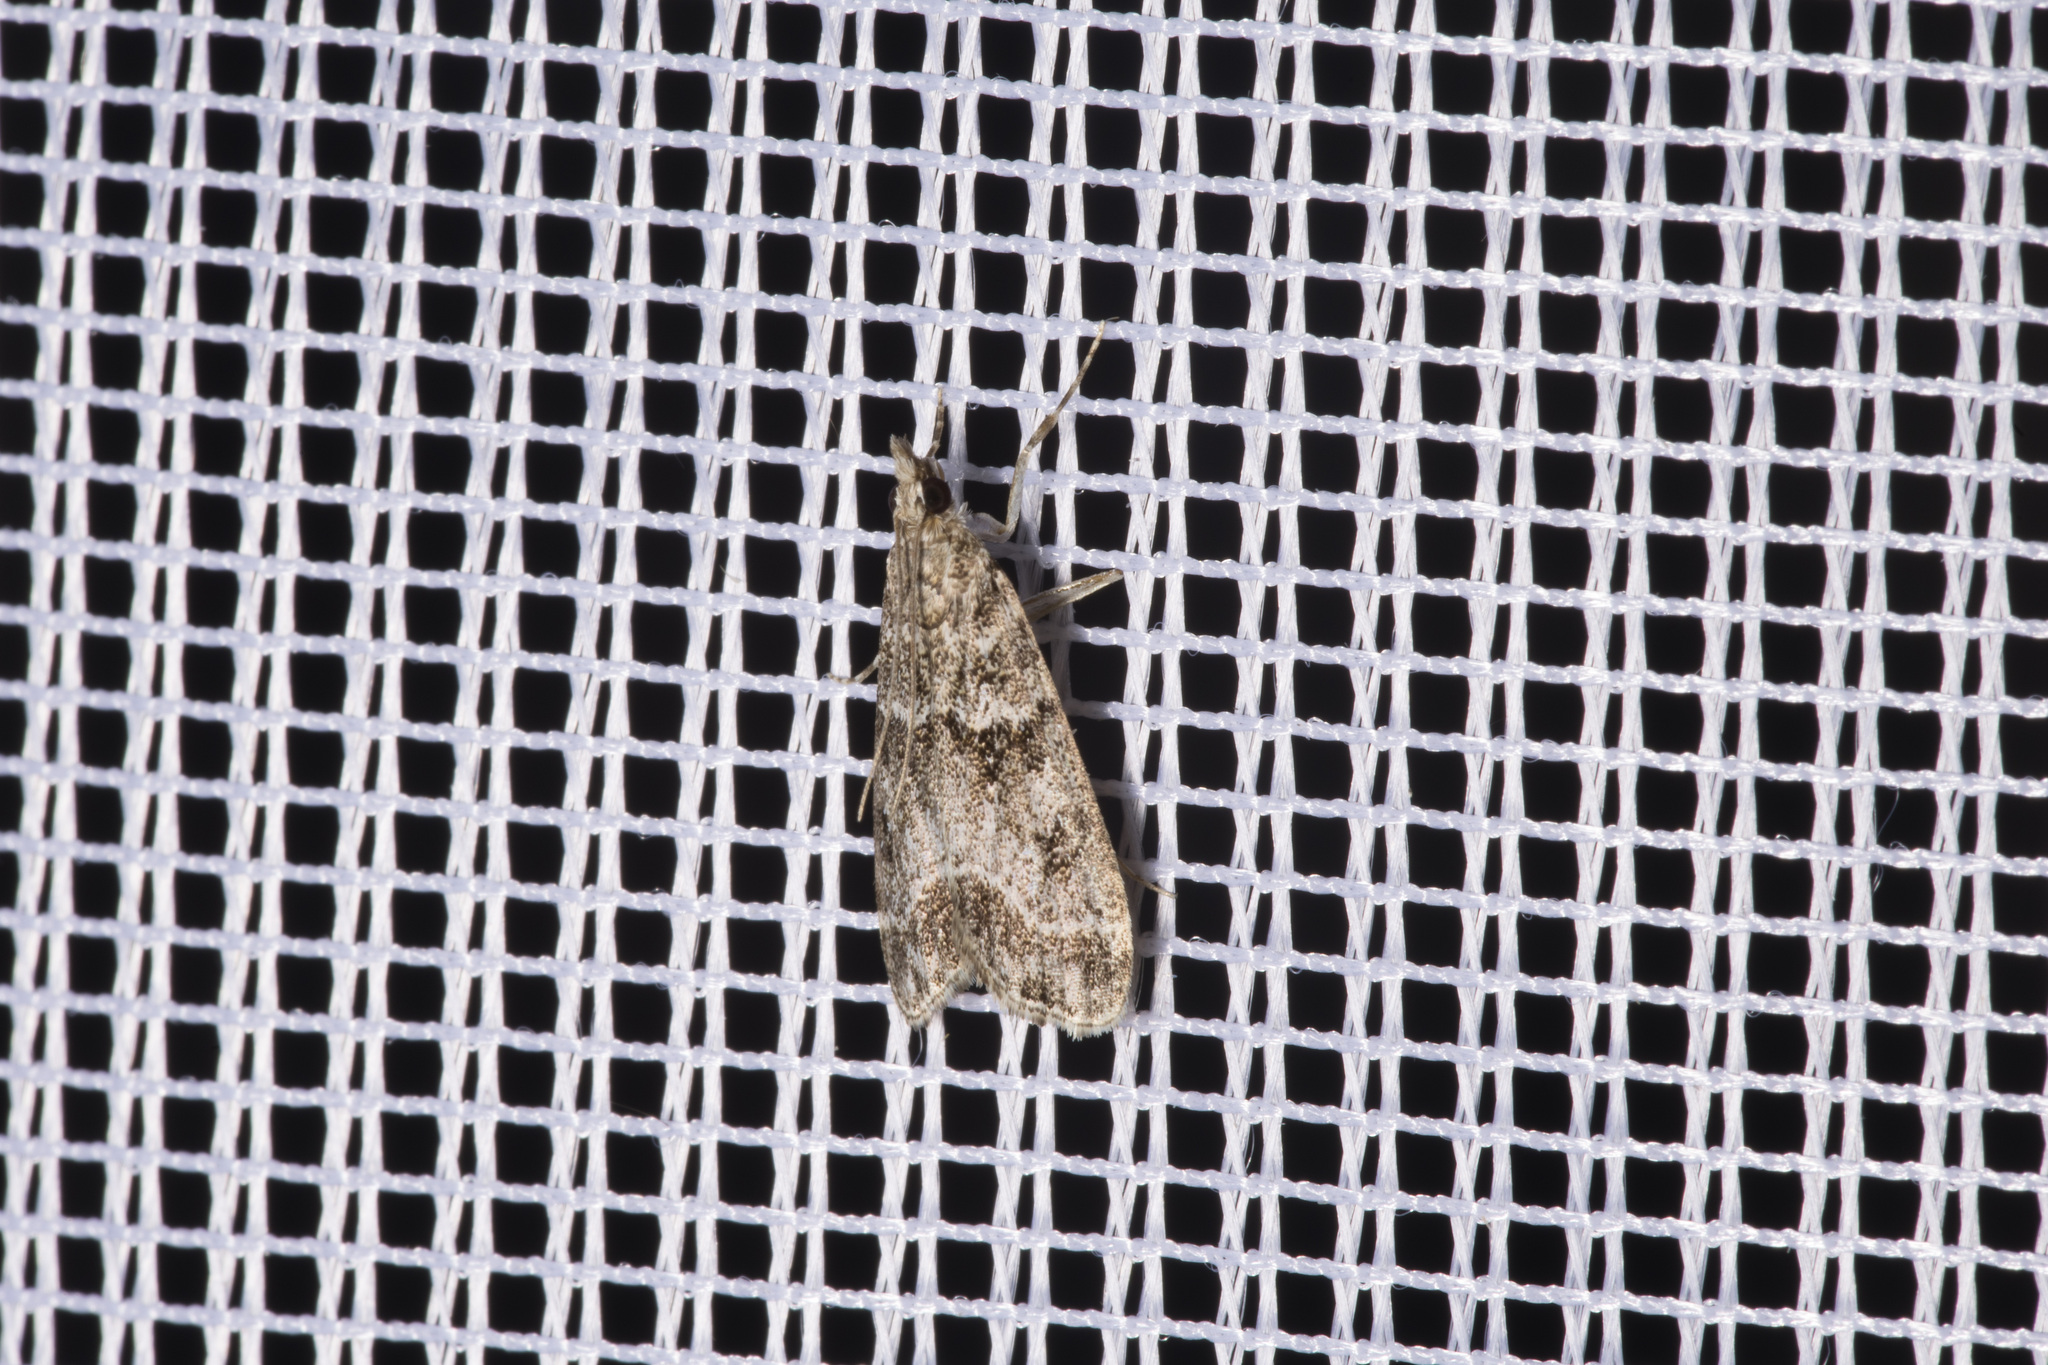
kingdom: Animalia
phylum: Arthropoda
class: Insecta
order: Lepidoptera
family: Crambidae
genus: Eudonia
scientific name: Eudonia mercurella
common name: Small grey
